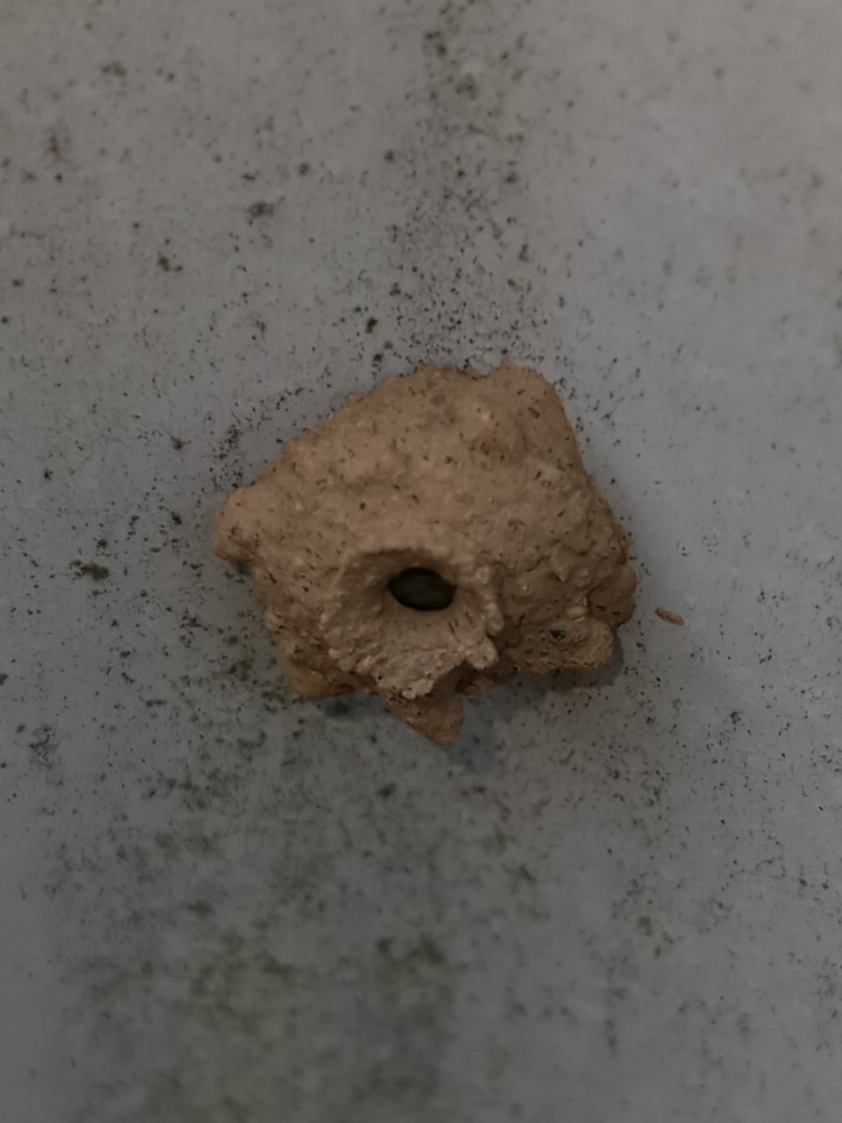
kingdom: Animalia
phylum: Arthropoda
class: Insecta
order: Hymenoptera
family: Vespidae
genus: Eumenes
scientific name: Eumenes
